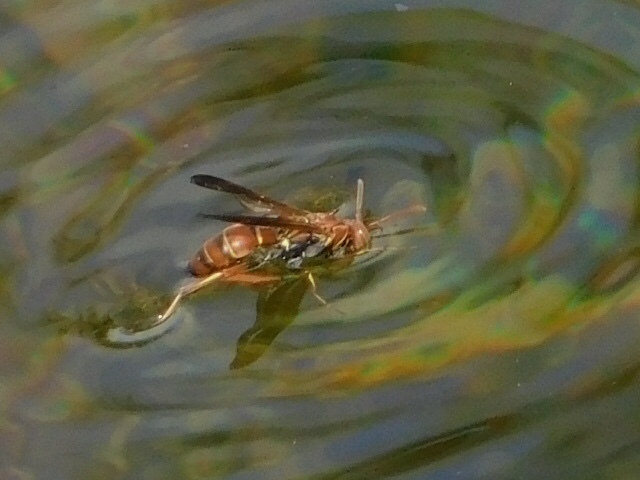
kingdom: Animalia
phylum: Arthropoda
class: Insecta
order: Hymenoptera
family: Eumenidae
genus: Polistes
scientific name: Polistes dorsalis
